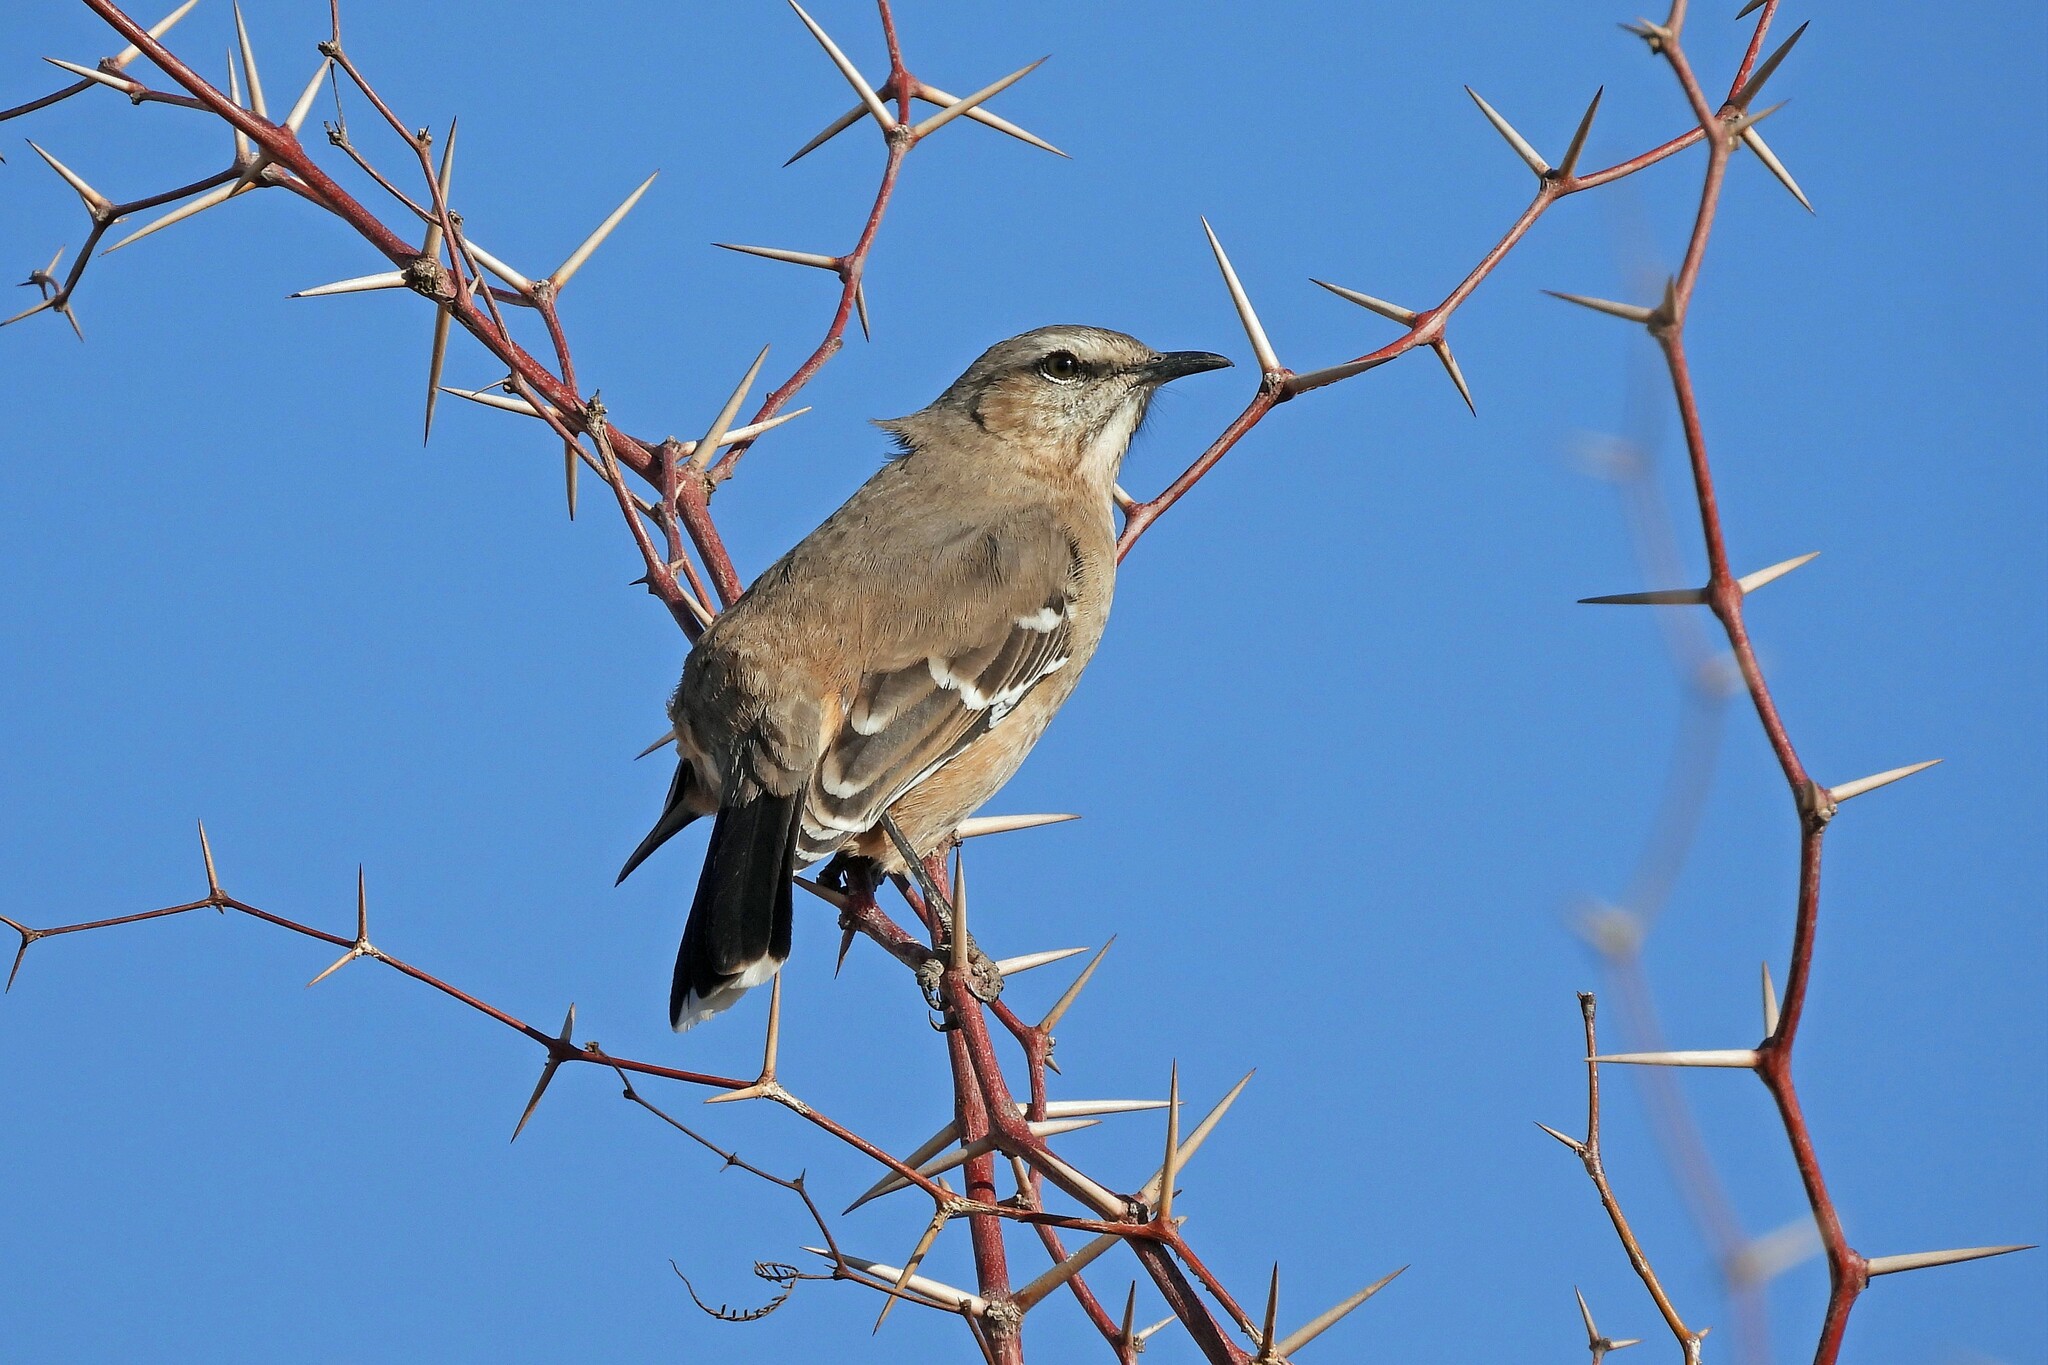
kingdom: Animalia
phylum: Chordata
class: Aves
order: Passeriformes
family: Mimidae
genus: Mimus
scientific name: Mimus patagonicus
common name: Patagonian mockingbird
